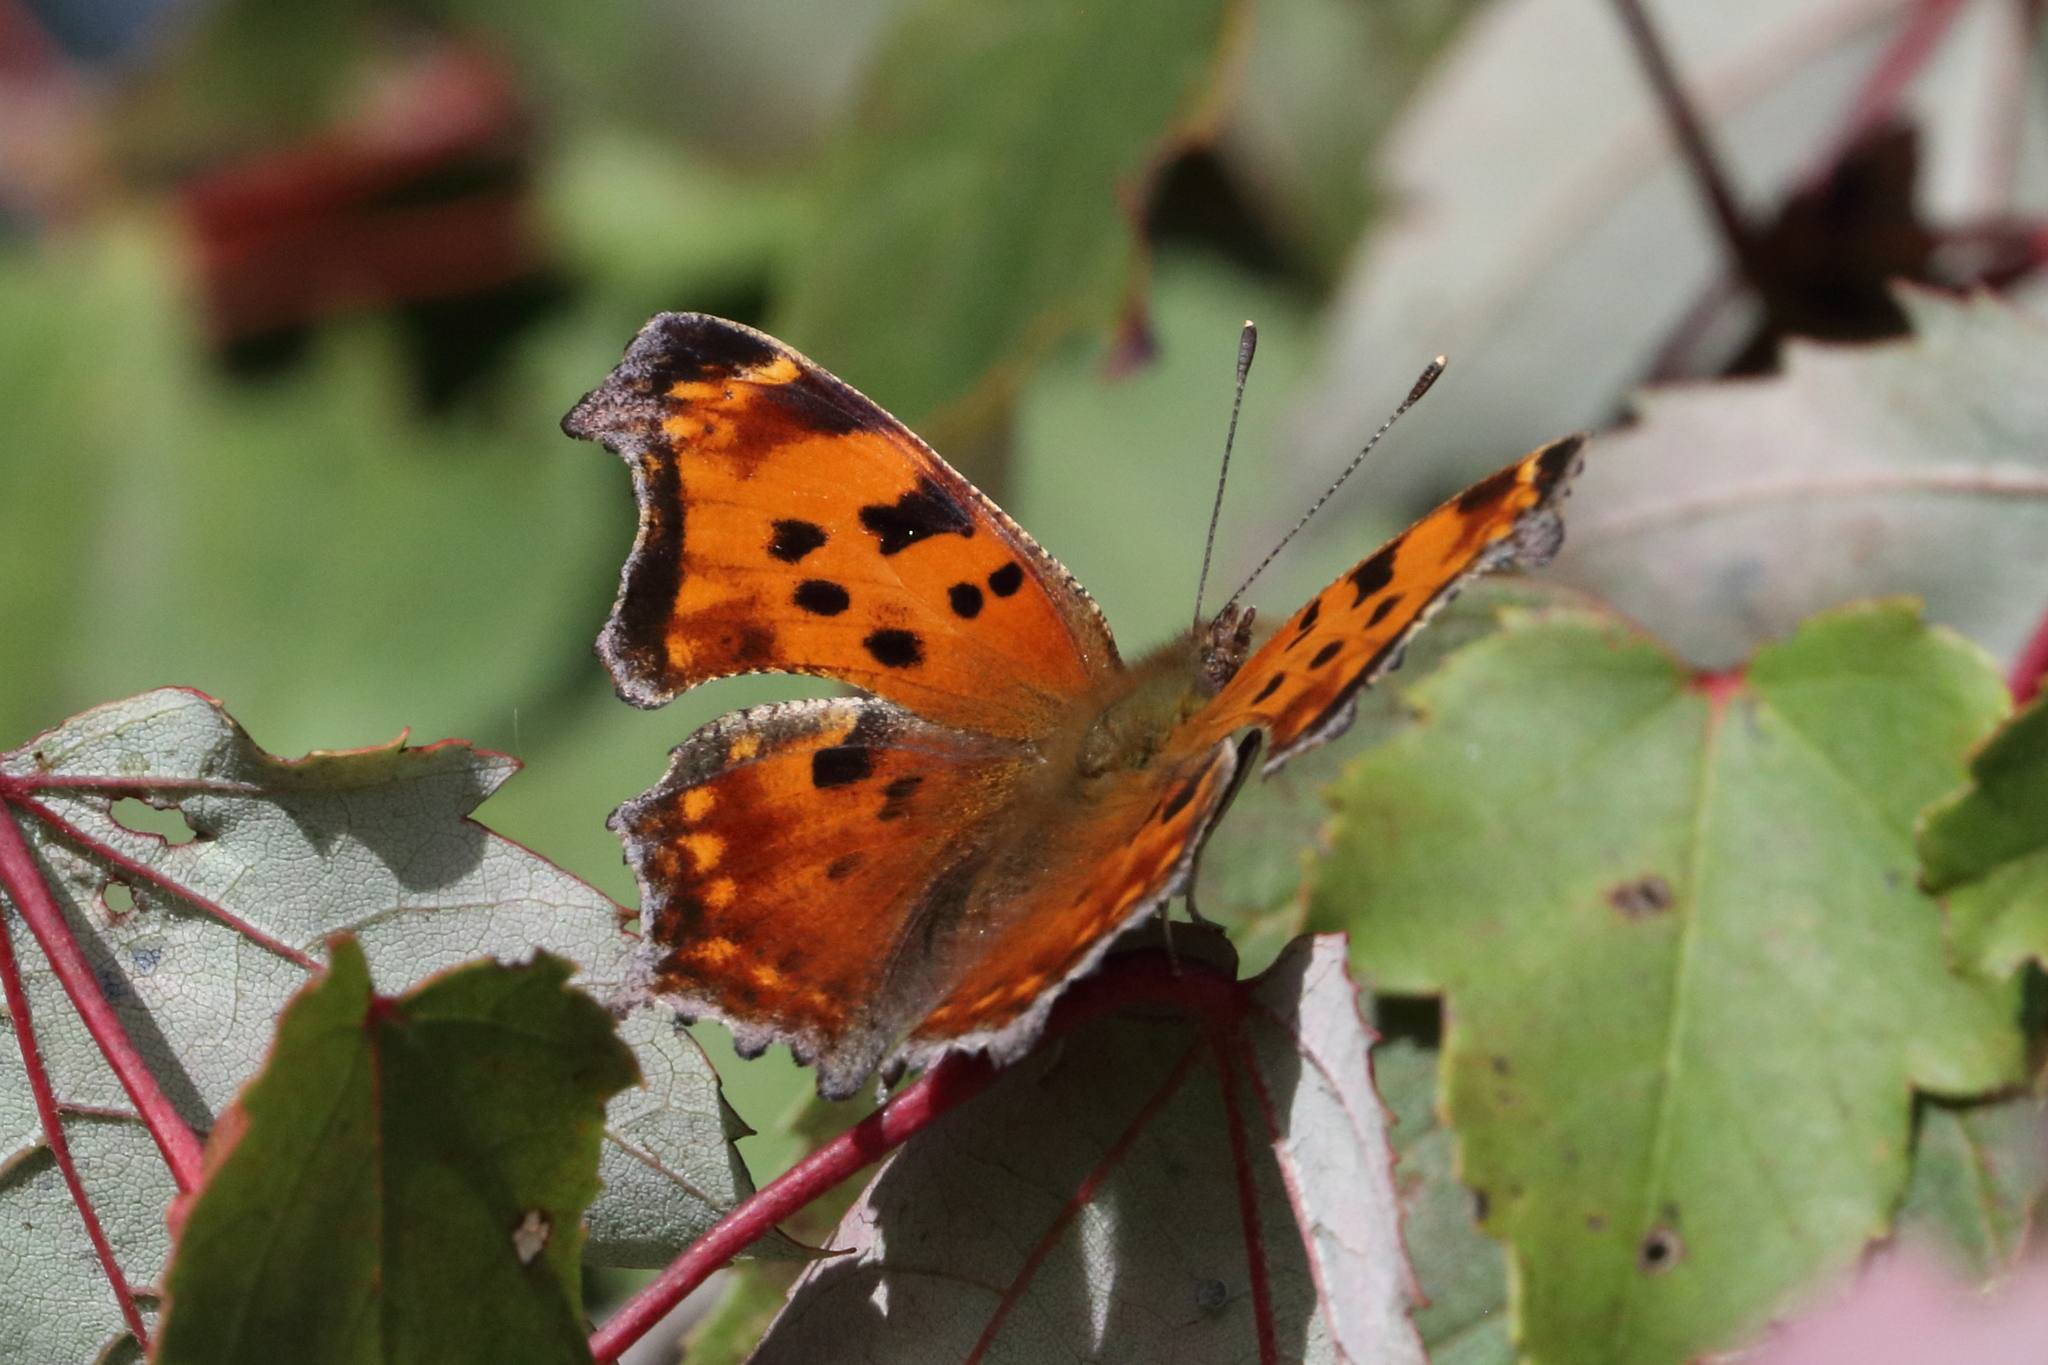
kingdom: Animalia
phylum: Arthropoda
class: Insecta
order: Lepidoptera
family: Nymphalidae
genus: Polygonia
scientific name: Polygonia comma
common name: Eastern comma
